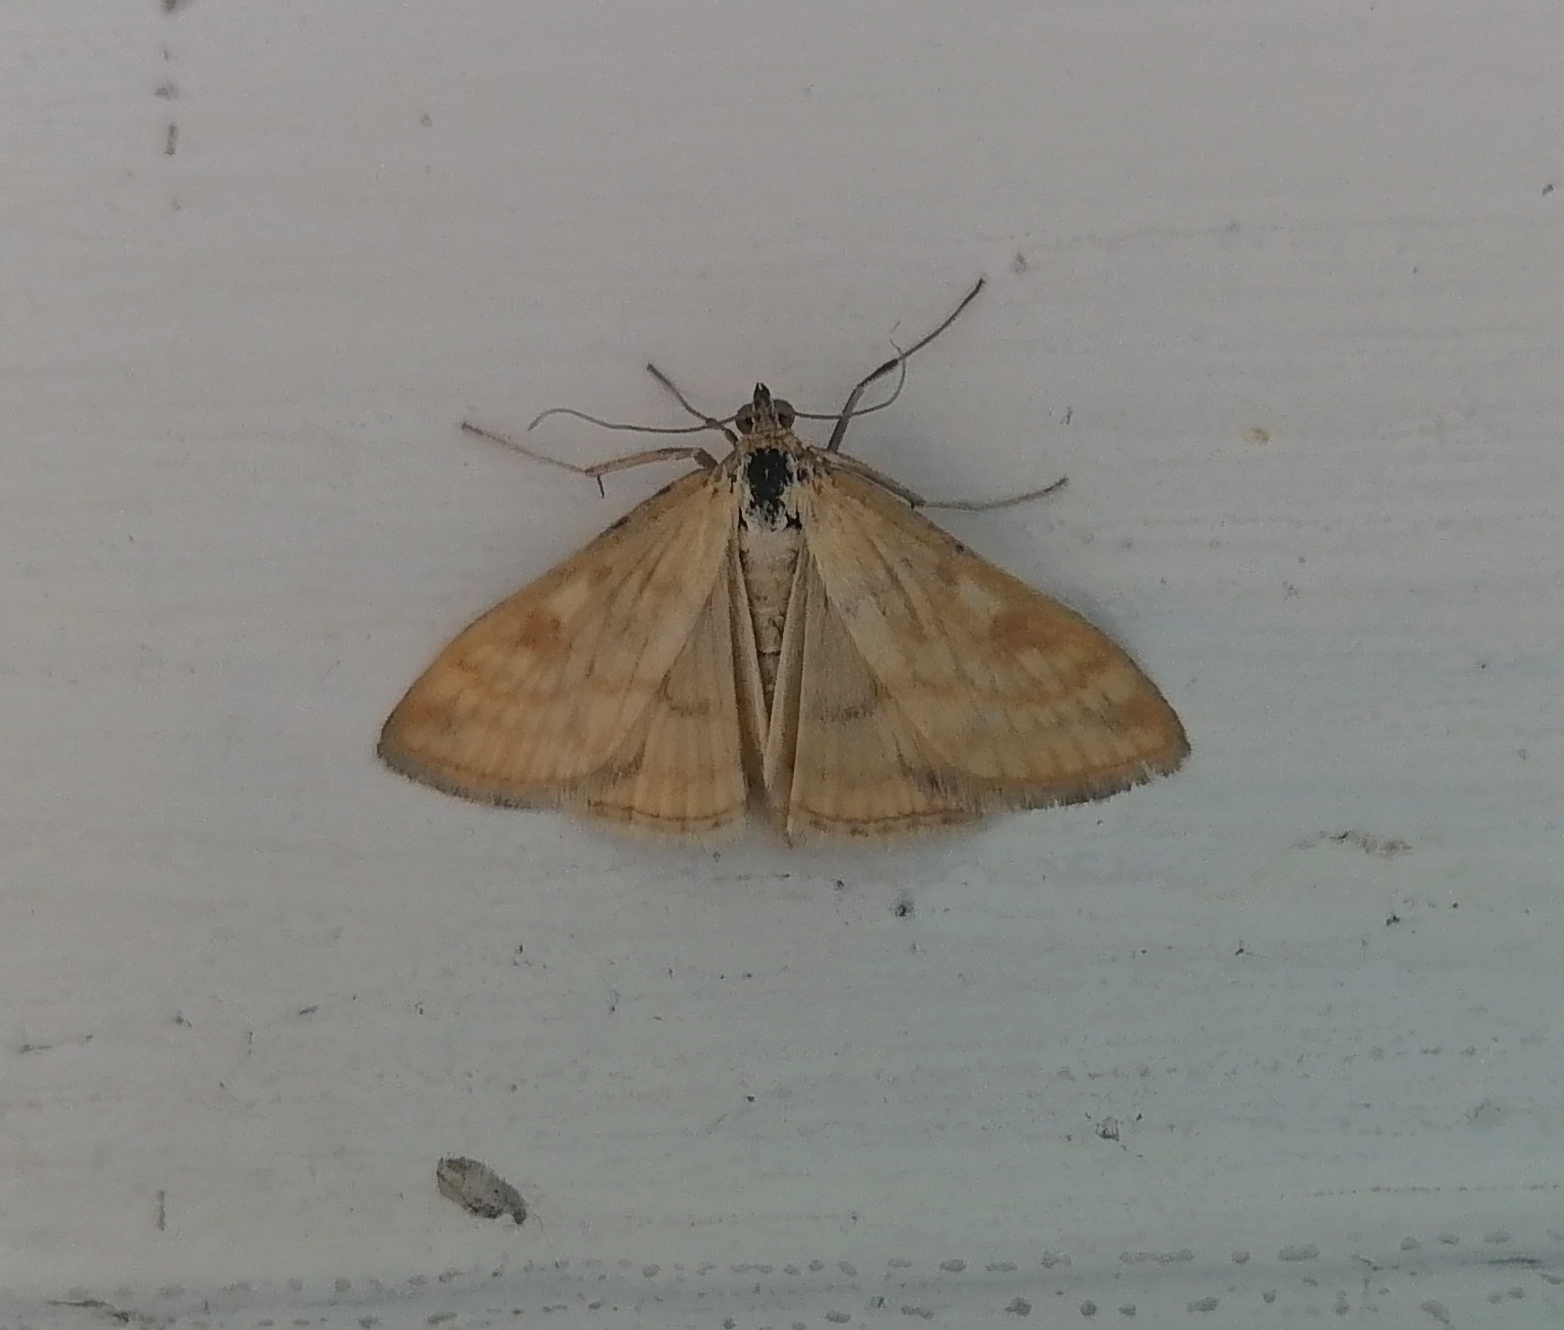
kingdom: Animalia
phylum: Arthropoda
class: Insecta
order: Lepidoptera
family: Crambidae
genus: Sitochroa
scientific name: Sitochroa verticalis
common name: Lesser pearl
